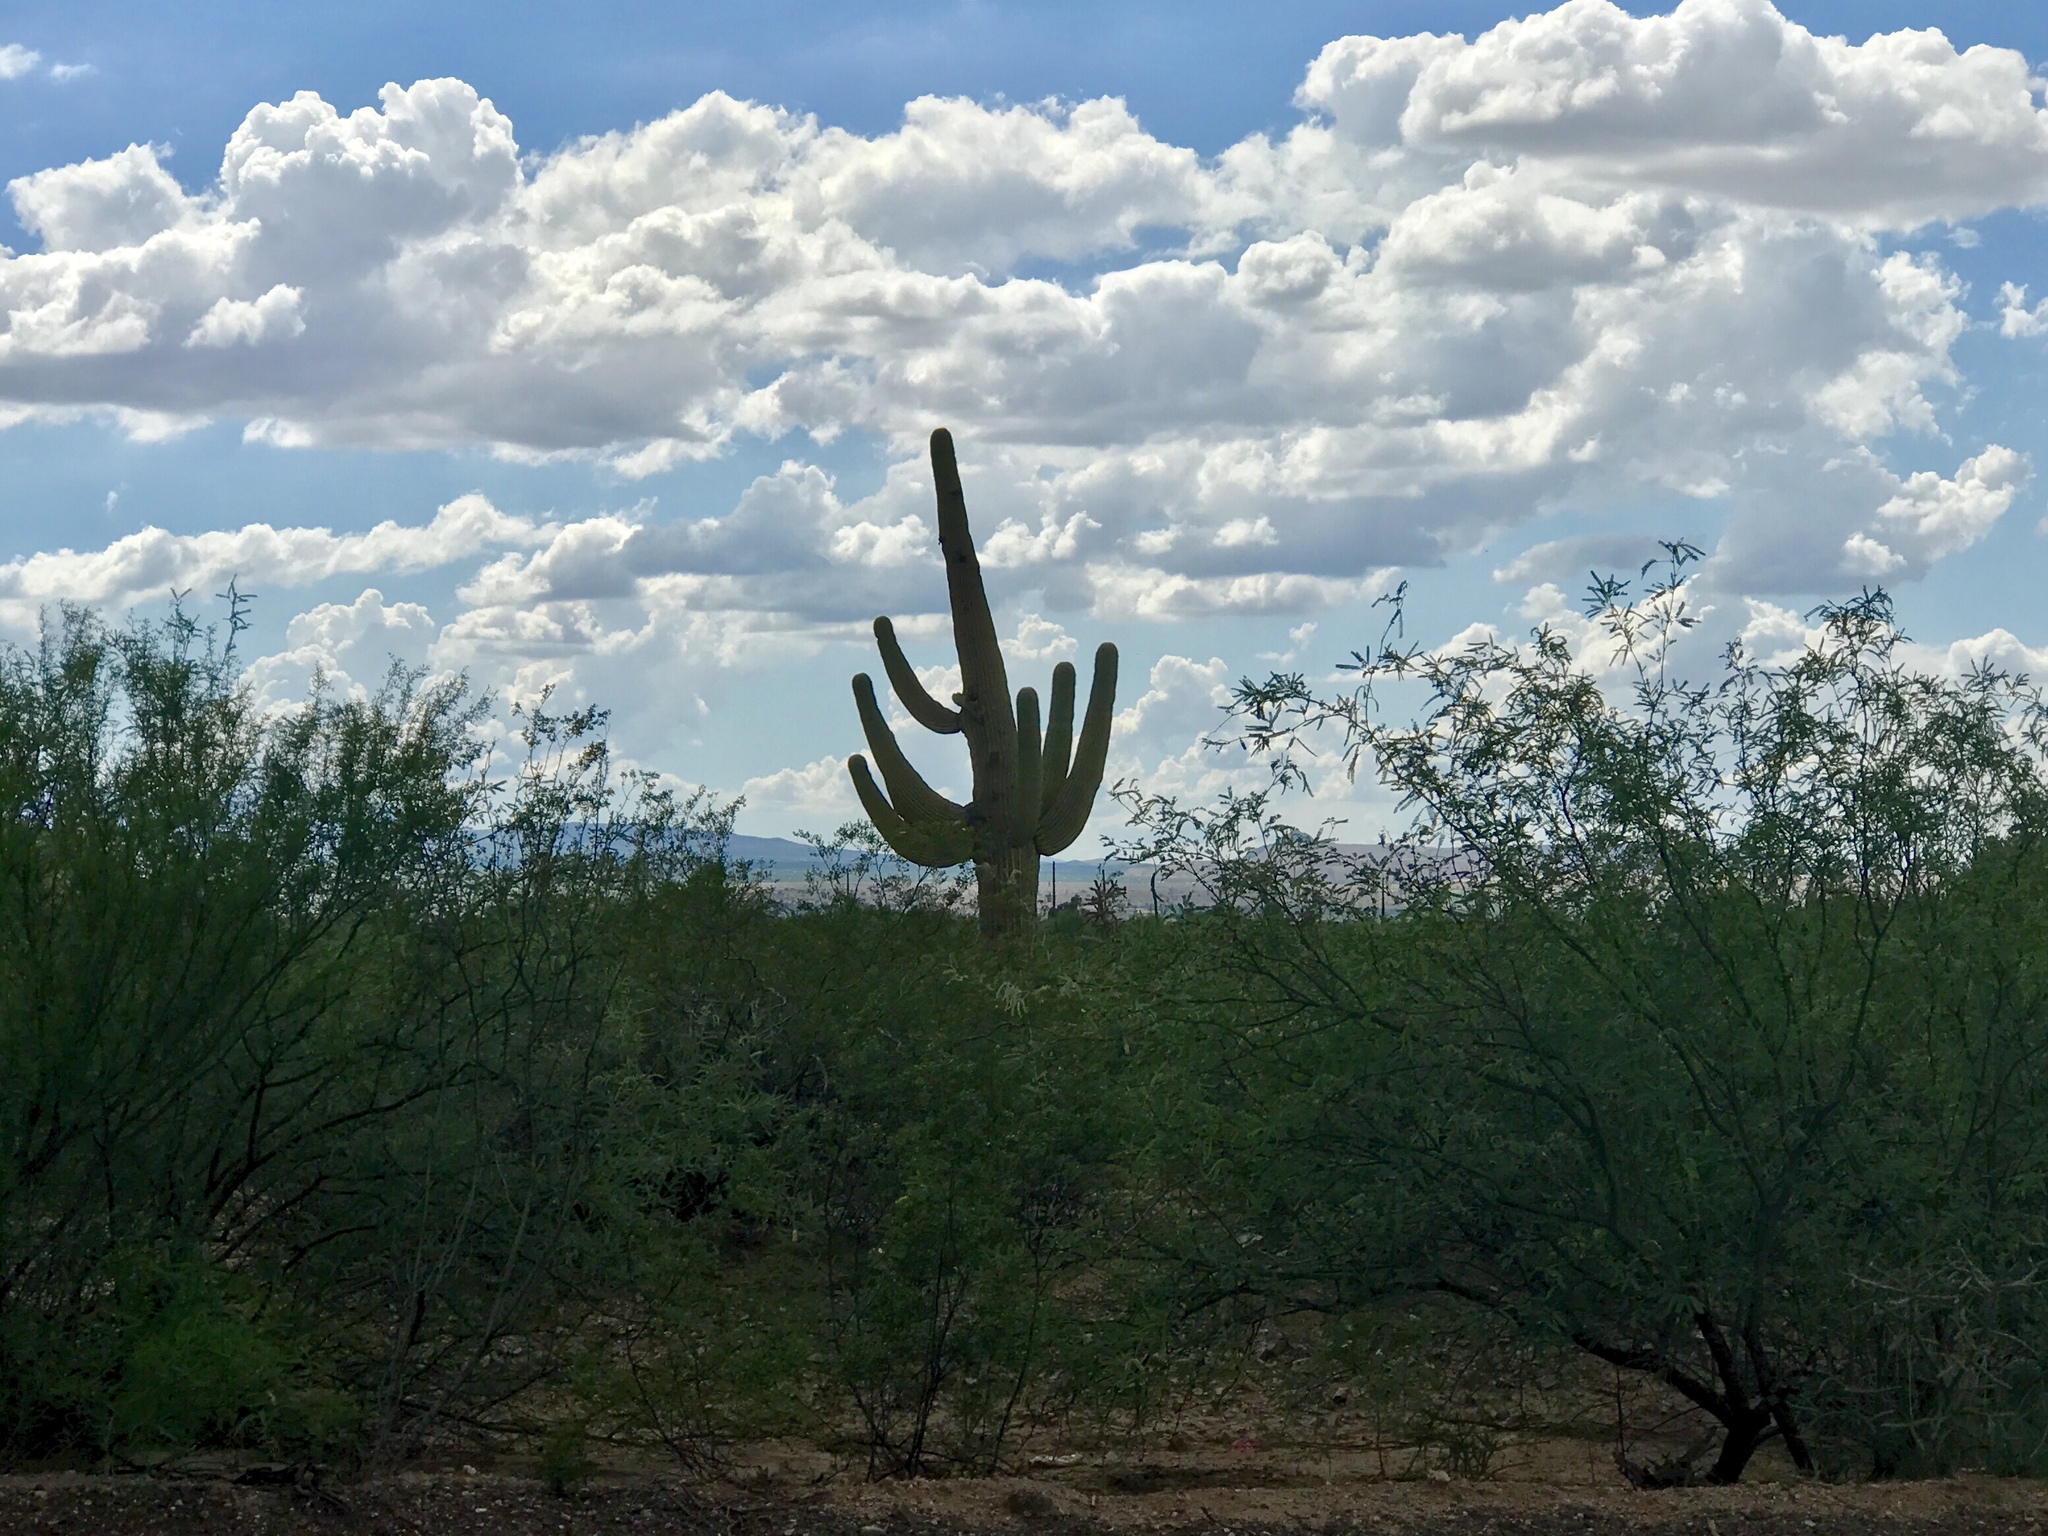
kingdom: Plantae
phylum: Tracheophyta
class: Magnoliopsida
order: Caryophyllales
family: Cactaceae
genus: Carnegiea
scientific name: Carnegiea gigantea
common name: Saguaro
